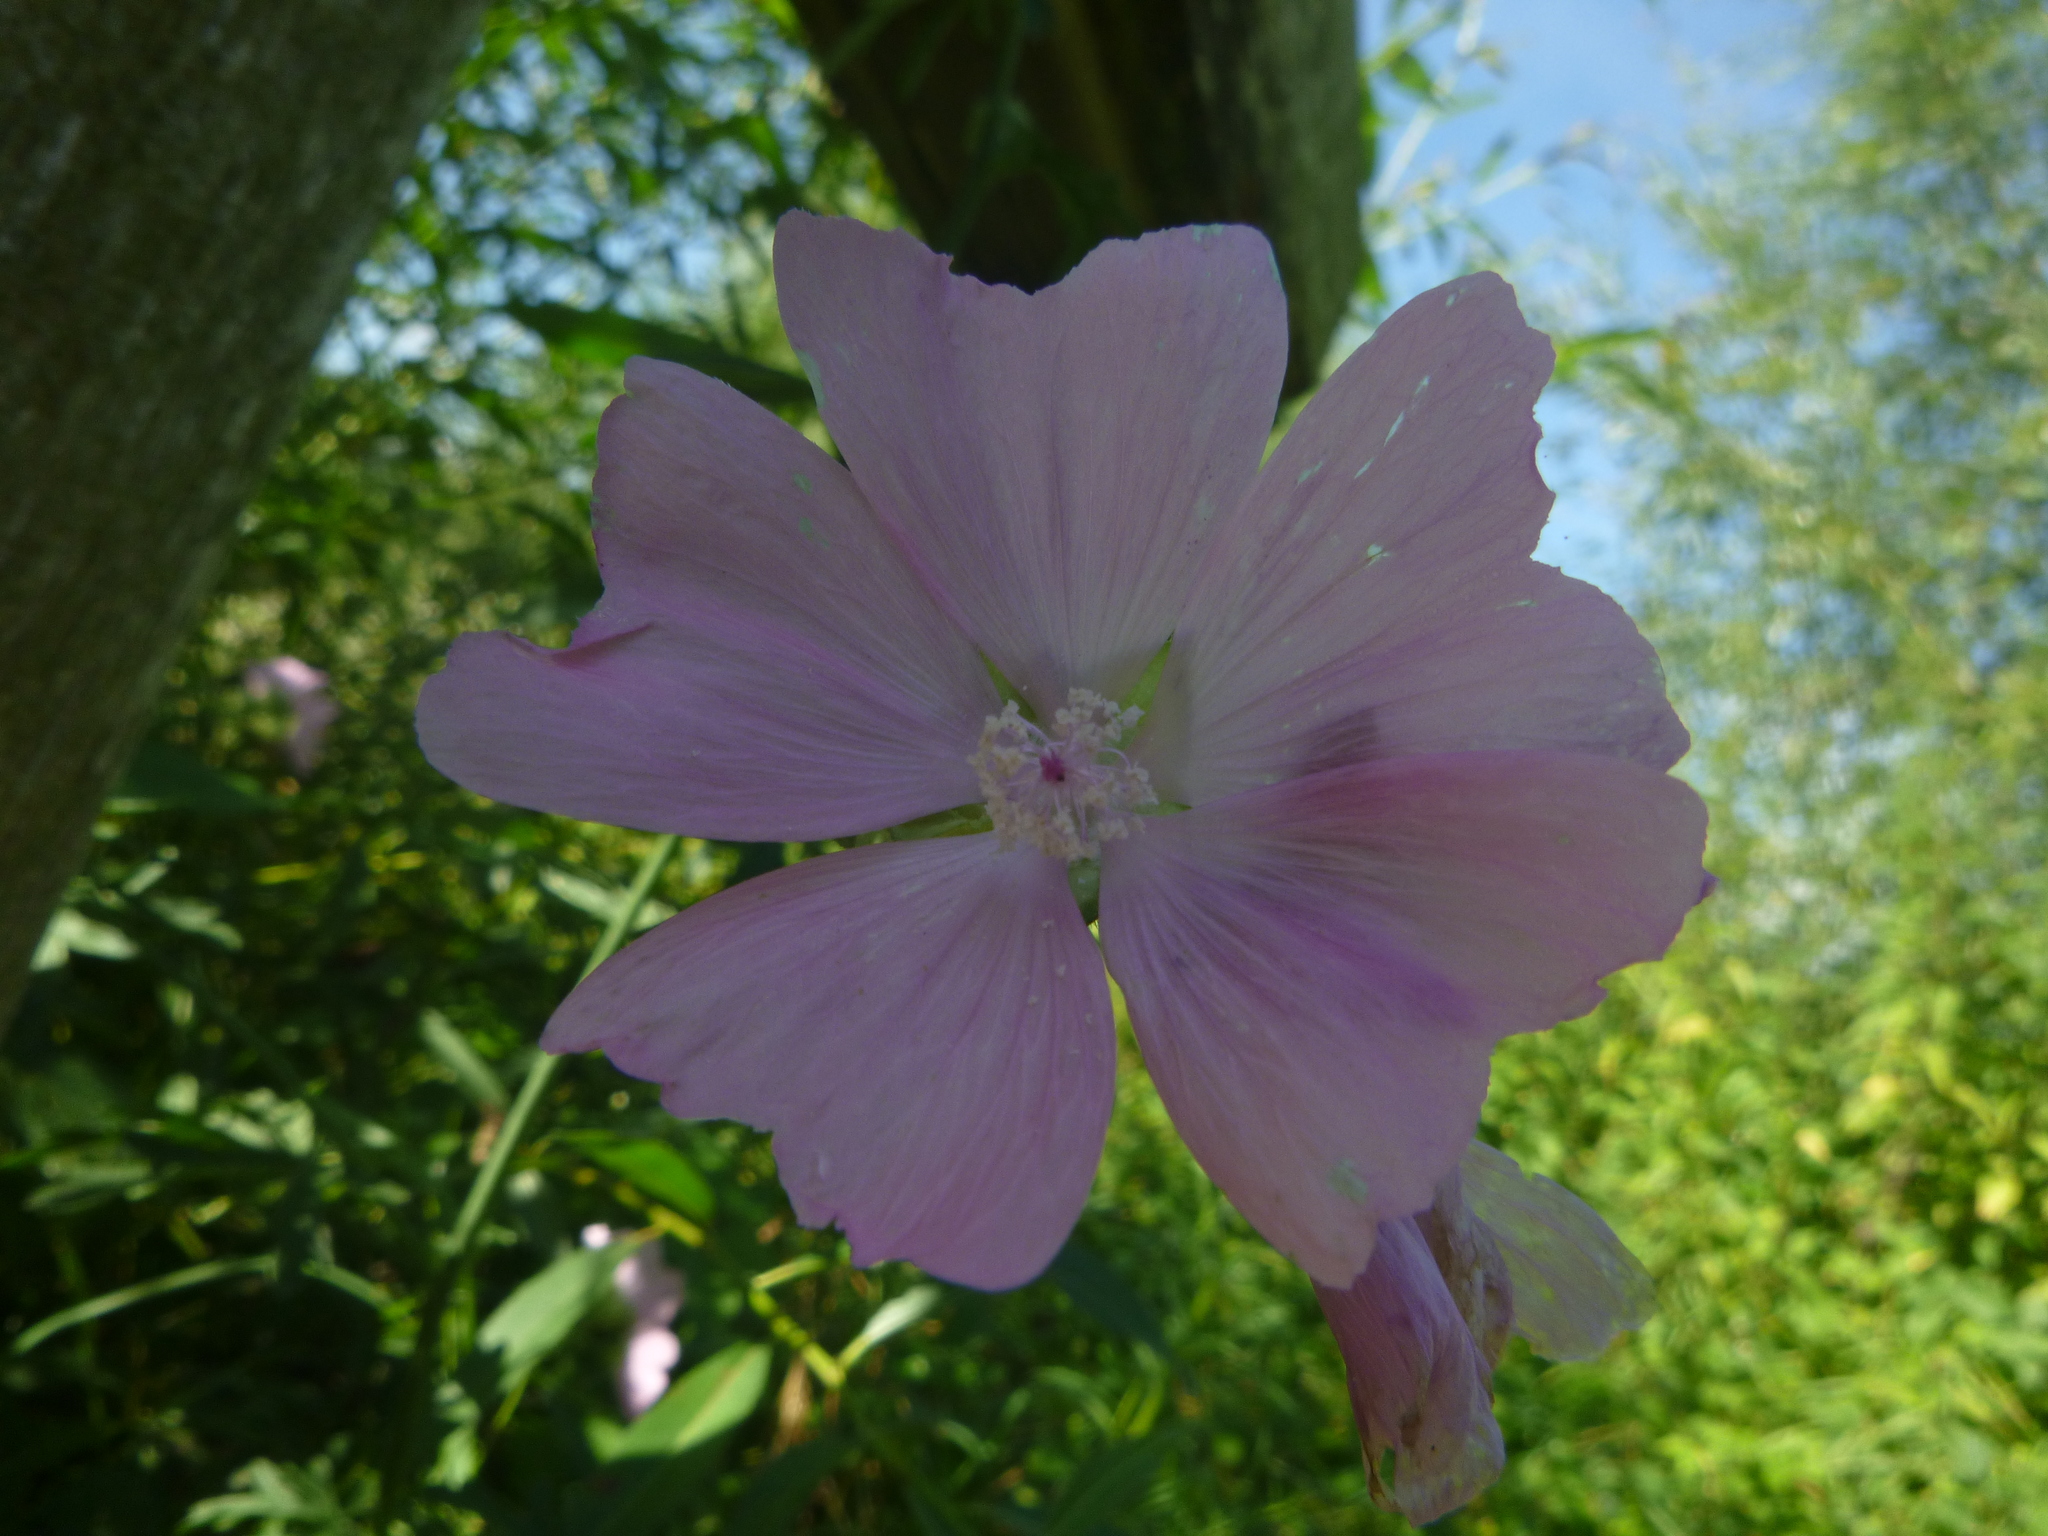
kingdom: Plantae
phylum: Tracheophyta
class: Magnoliopsida
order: Malvales
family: Malvaceae
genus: Malva
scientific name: Malva alcea
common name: Greater musk-mallow
